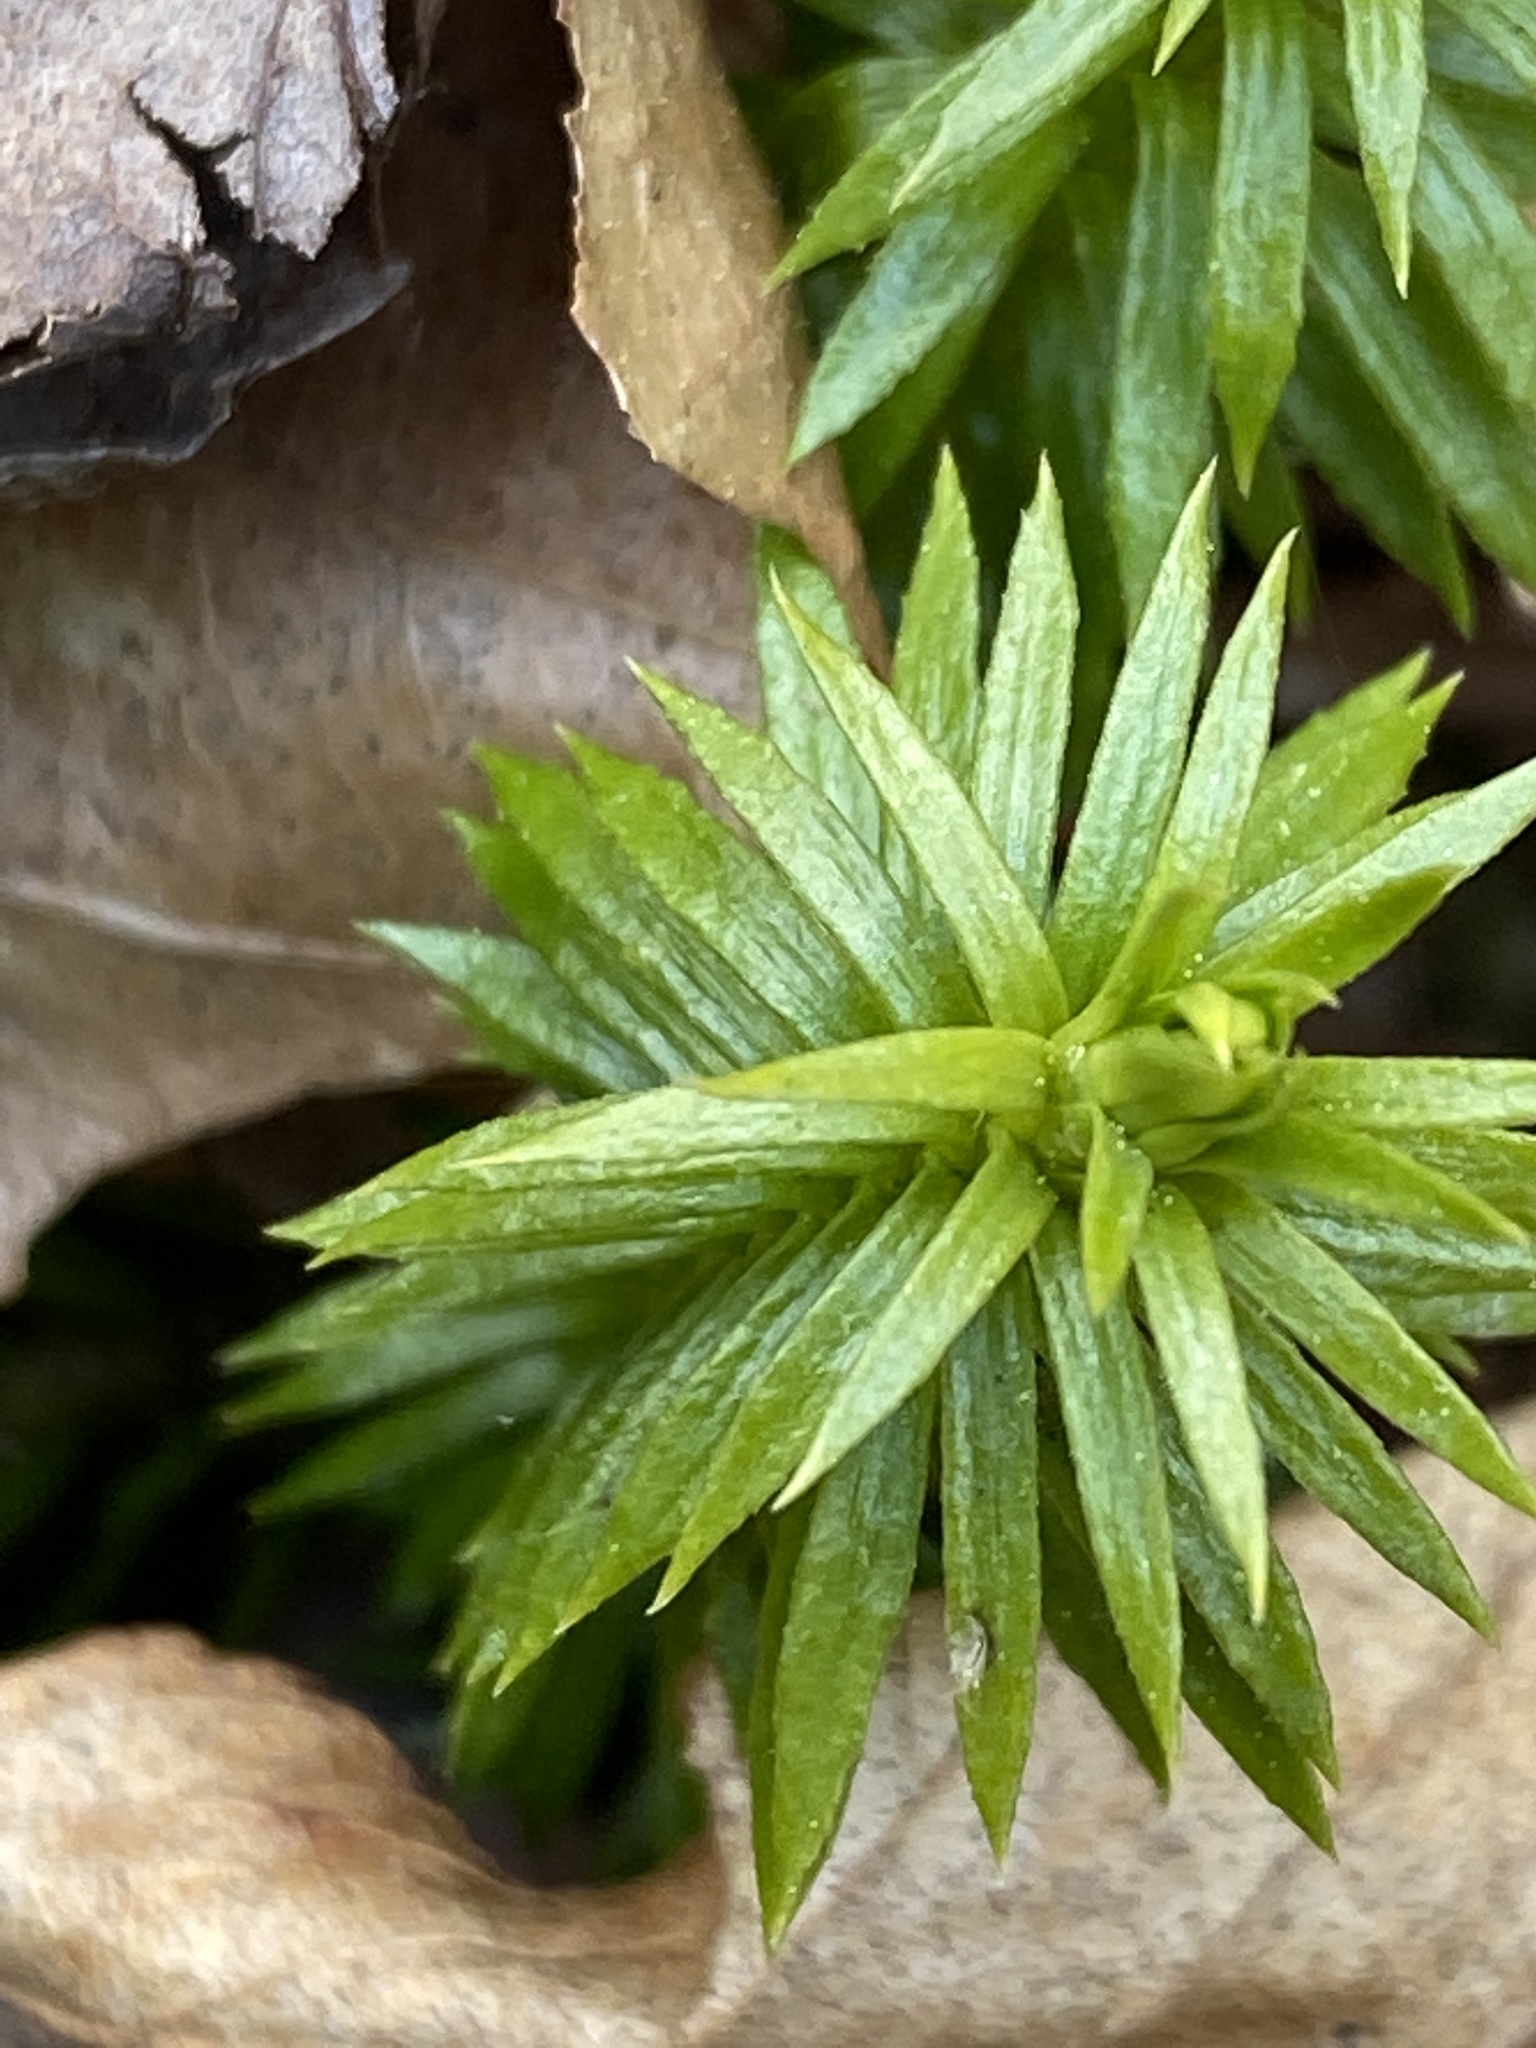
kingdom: Plantae
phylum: Tracheophyta
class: Lycopodiopsida
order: Lycopodiales
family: Lycopodiaceae
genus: Huperzia
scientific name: Huperzia lucidula
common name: Shining clubmoss
